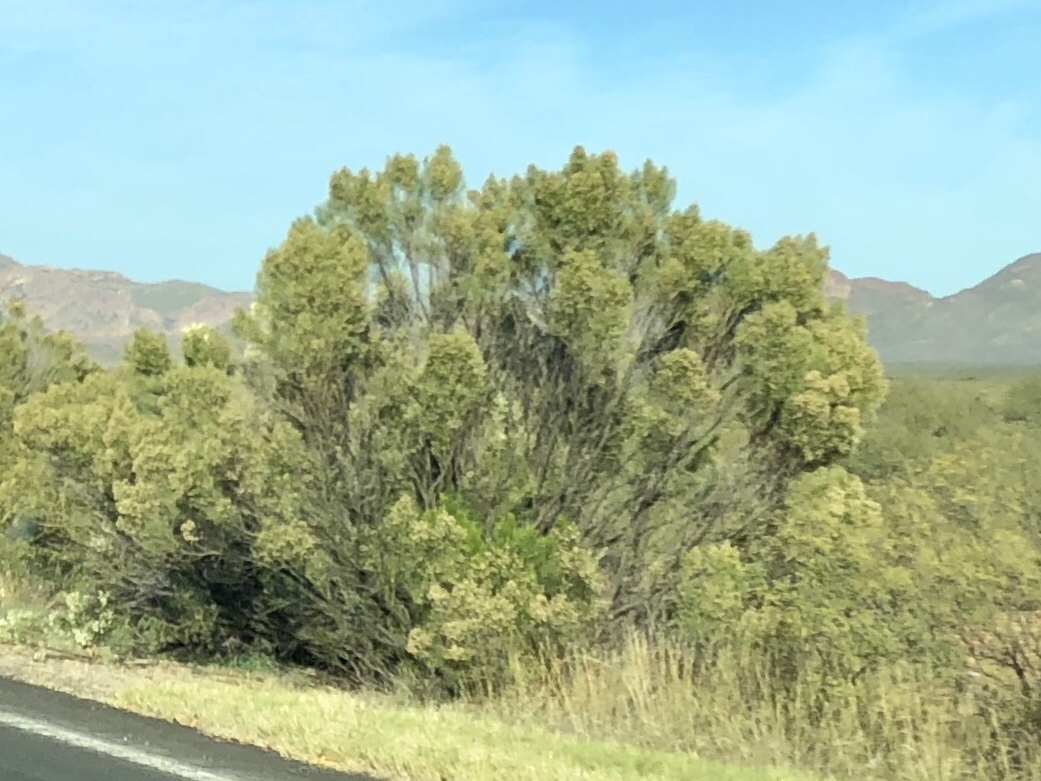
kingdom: Plantae
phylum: Tracheophyta
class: Magnoliopsida
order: Asterales
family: Asteraceae
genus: Baccharis
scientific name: Baccharis sarothroides
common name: Desert-broom
